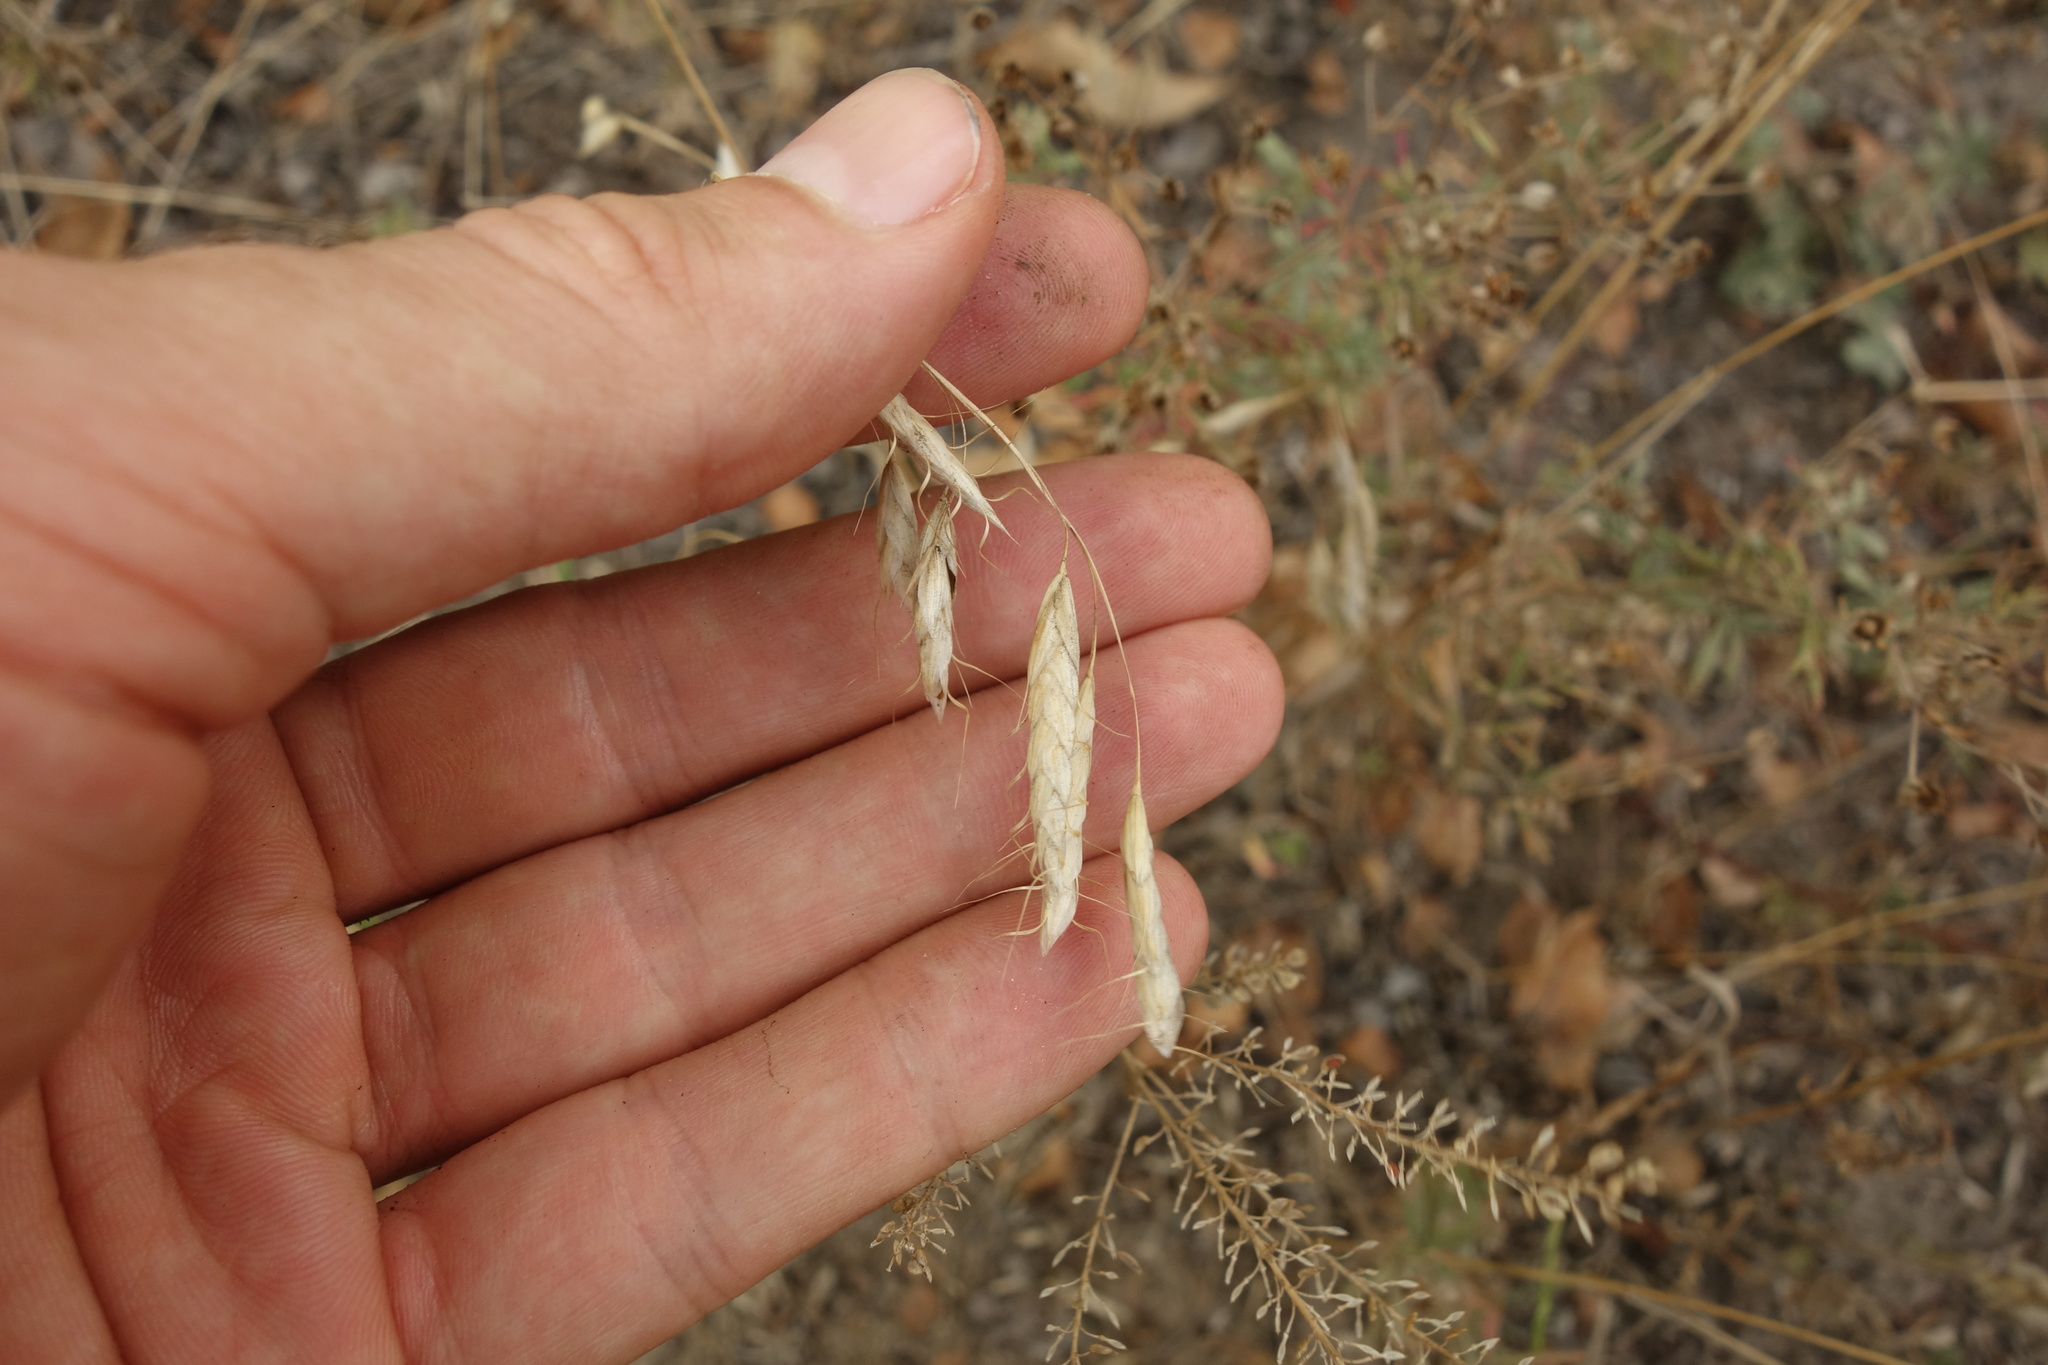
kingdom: Plantae
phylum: Tracheophyta
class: Liliopsida
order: Poales
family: Poaceae
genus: Bromus
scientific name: Bromus squarrosus
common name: Corn brome
